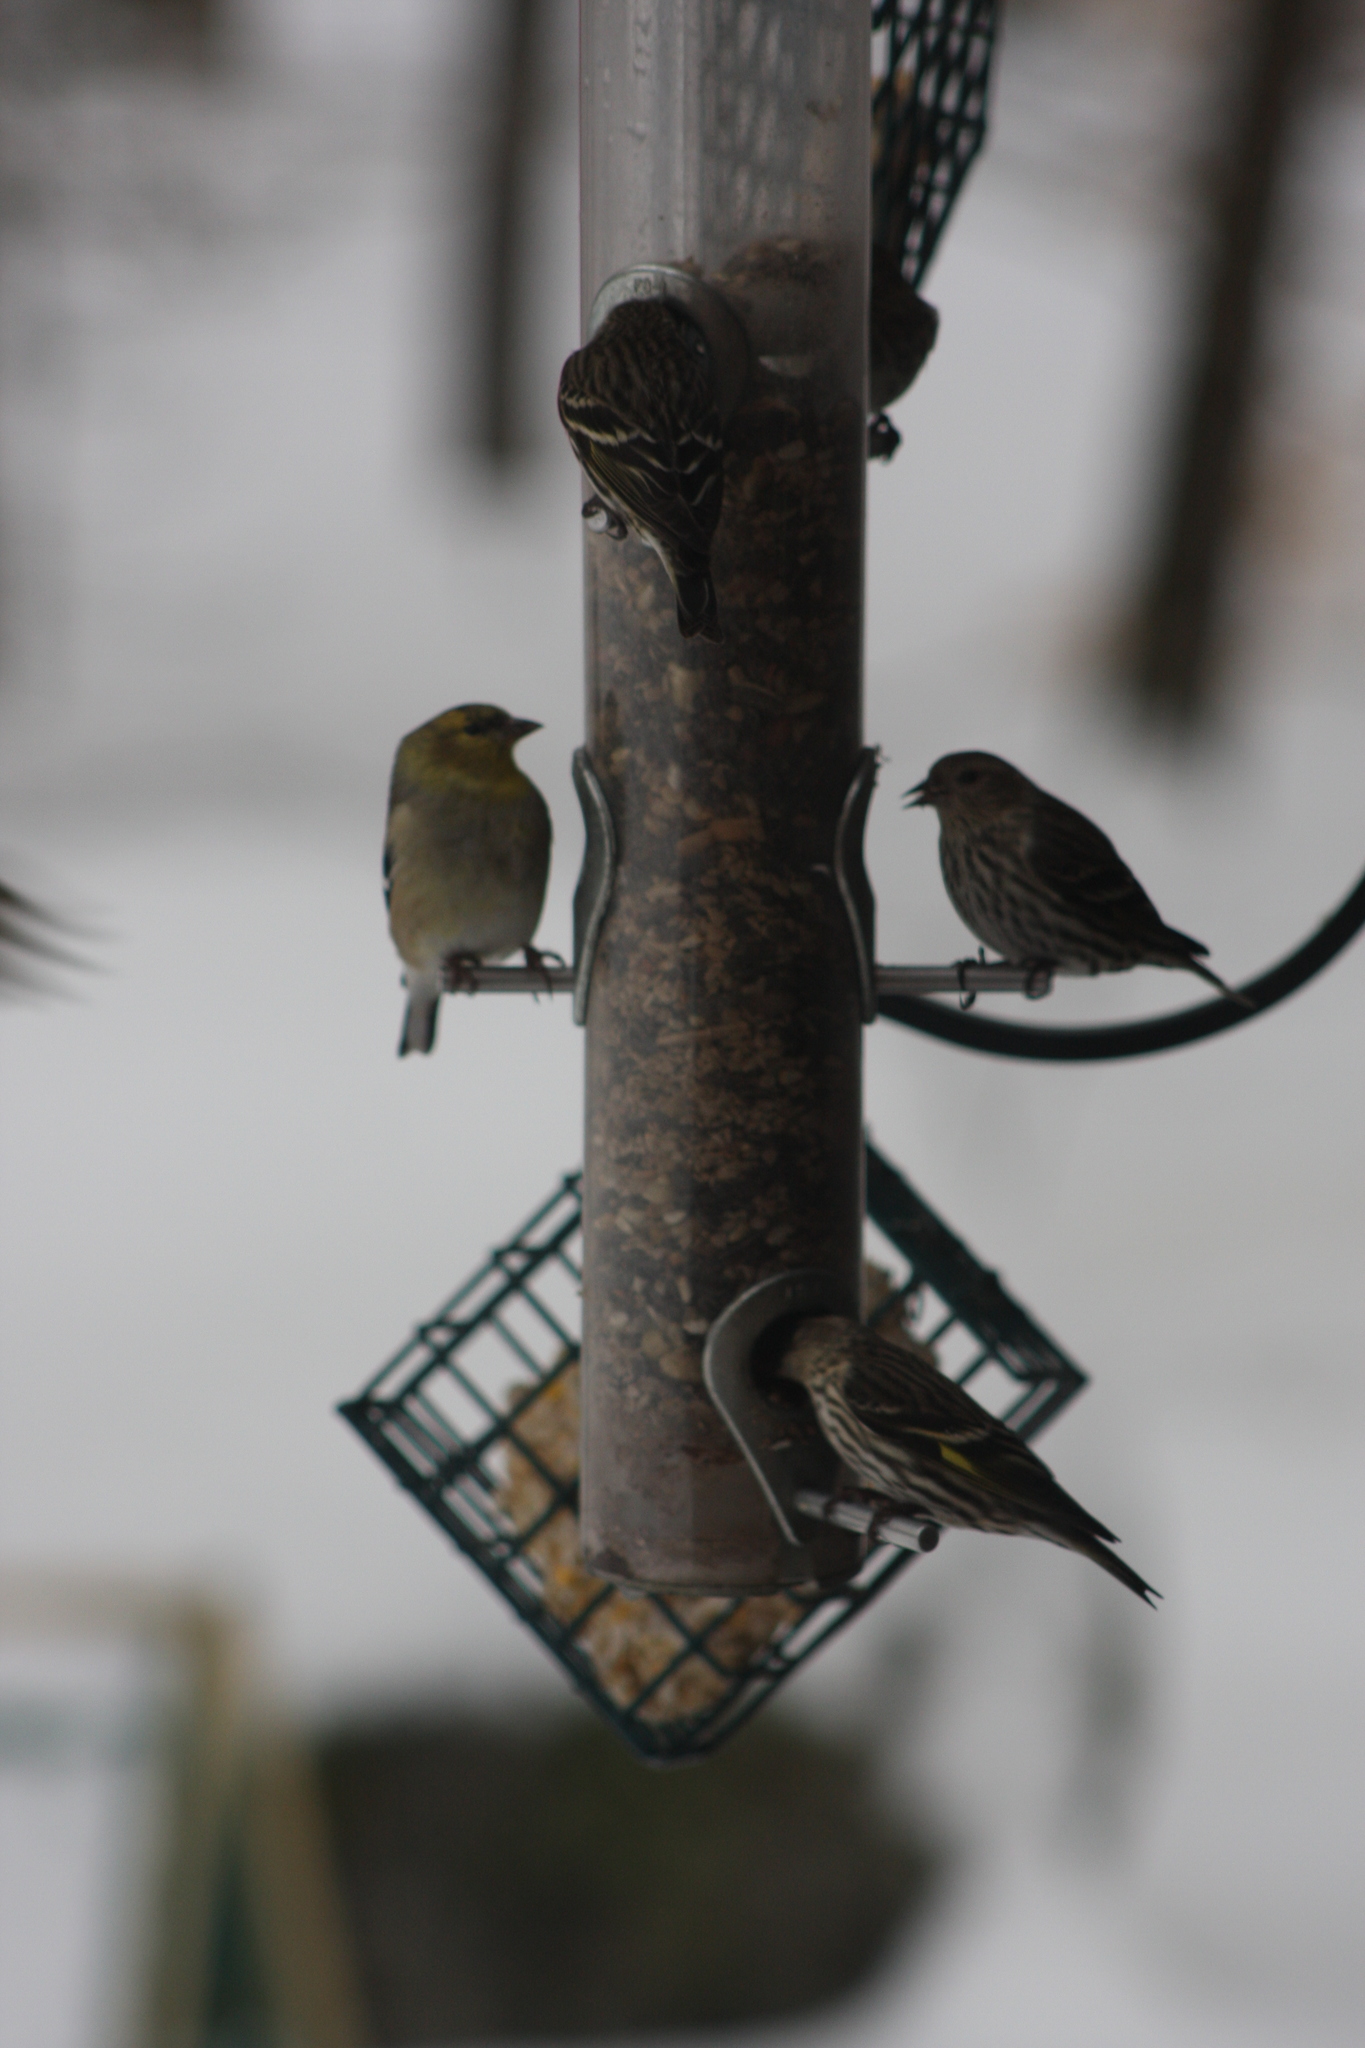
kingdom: Animalia
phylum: Chordata
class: Aves
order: Passeriformes
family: Fringillidae
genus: Spinus
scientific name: Spinus pinus
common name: Pine siskin
